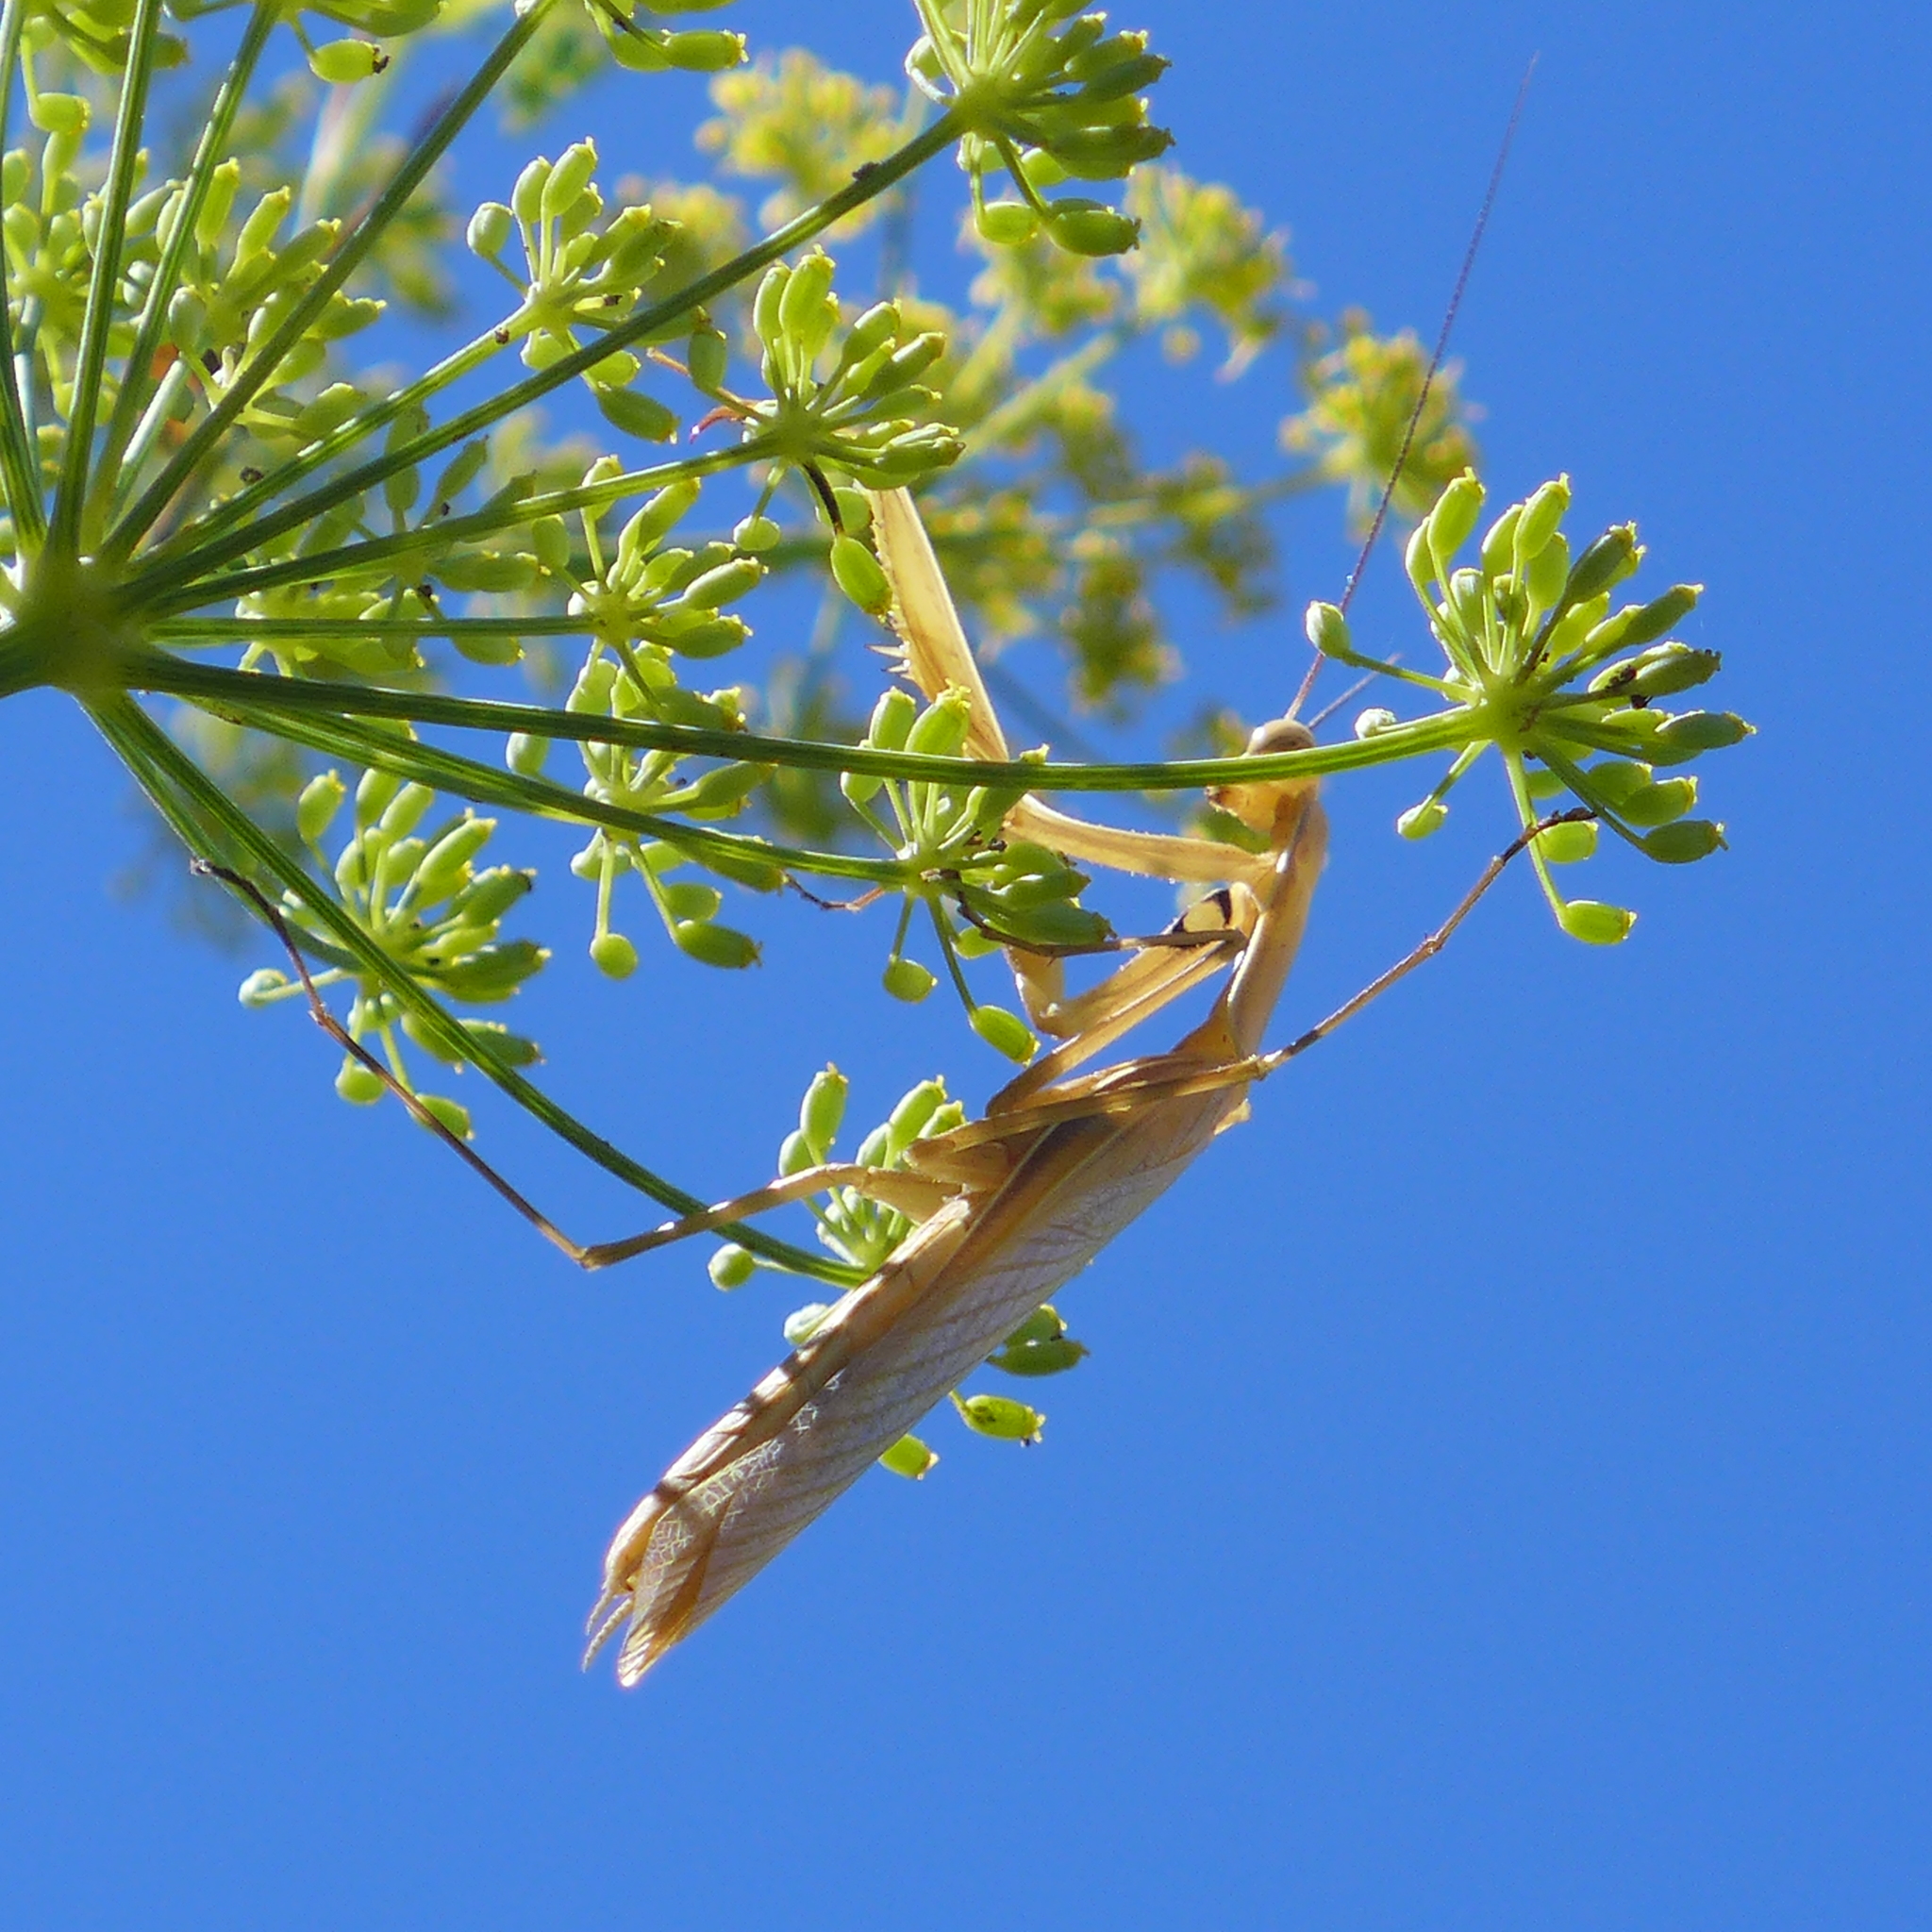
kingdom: Animalia
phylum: Arthropoda
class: Insecta
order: Mantodea
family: Mantidae
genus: Mantis
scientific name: Mantis religiosa
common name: Praying mantis
